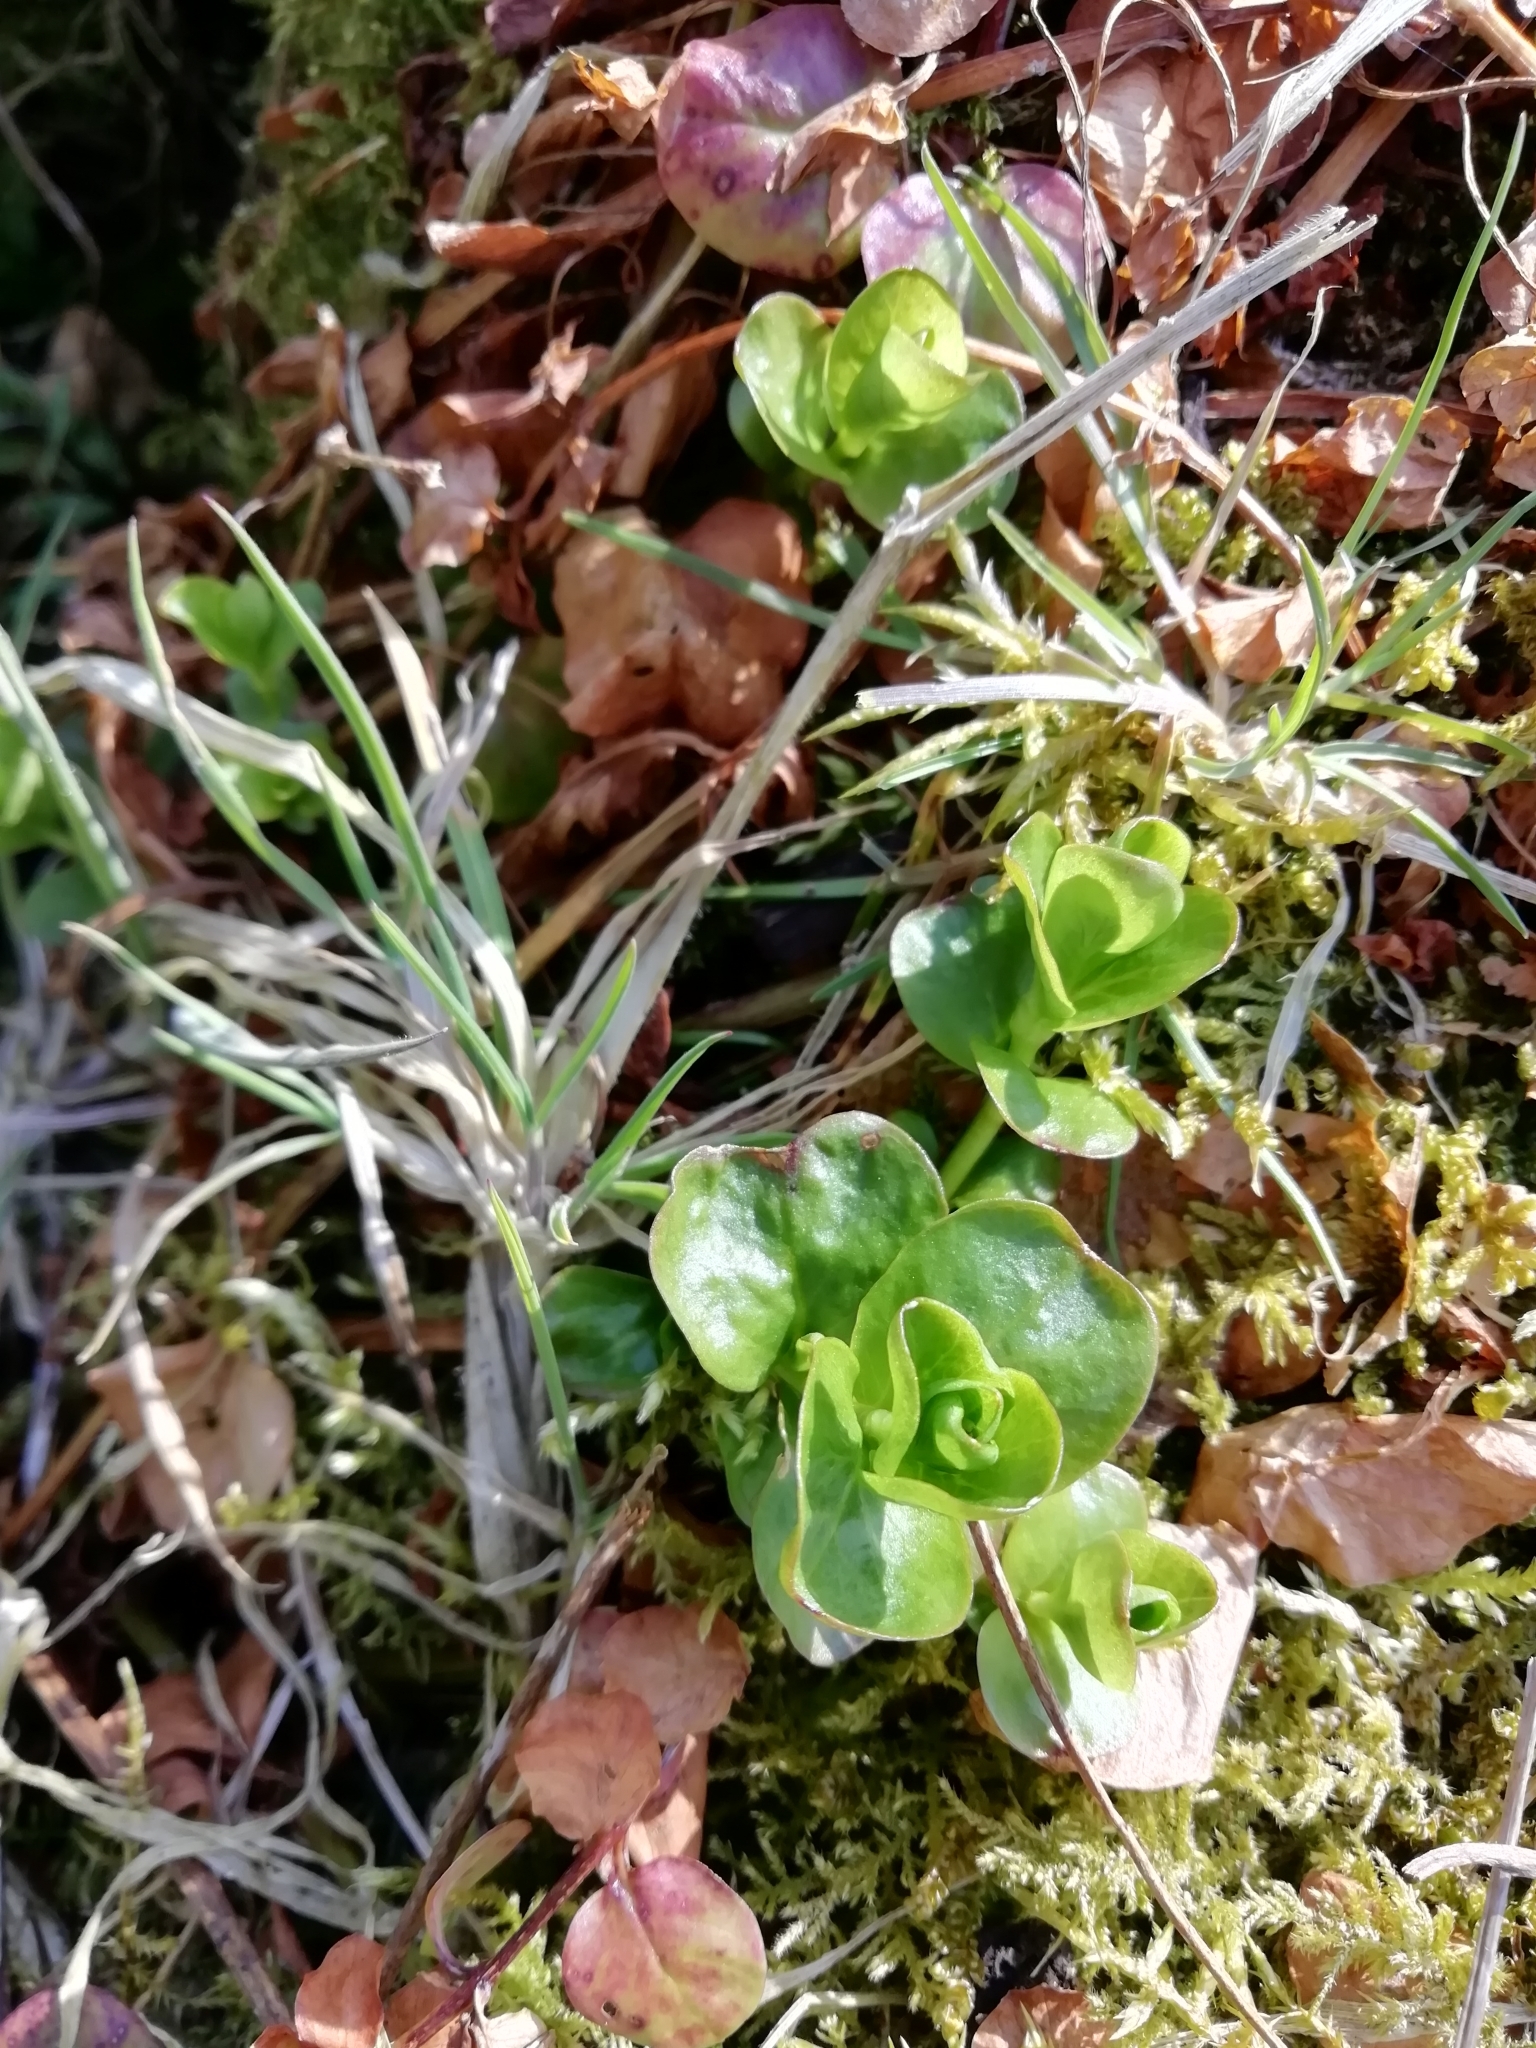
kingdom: Plantae
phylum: Tracheophyta
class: Magnoliopsida
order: Ericales
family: Primulaceae
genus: Lysimachia
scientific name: Lysimachia nummularia
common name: Moneywort
